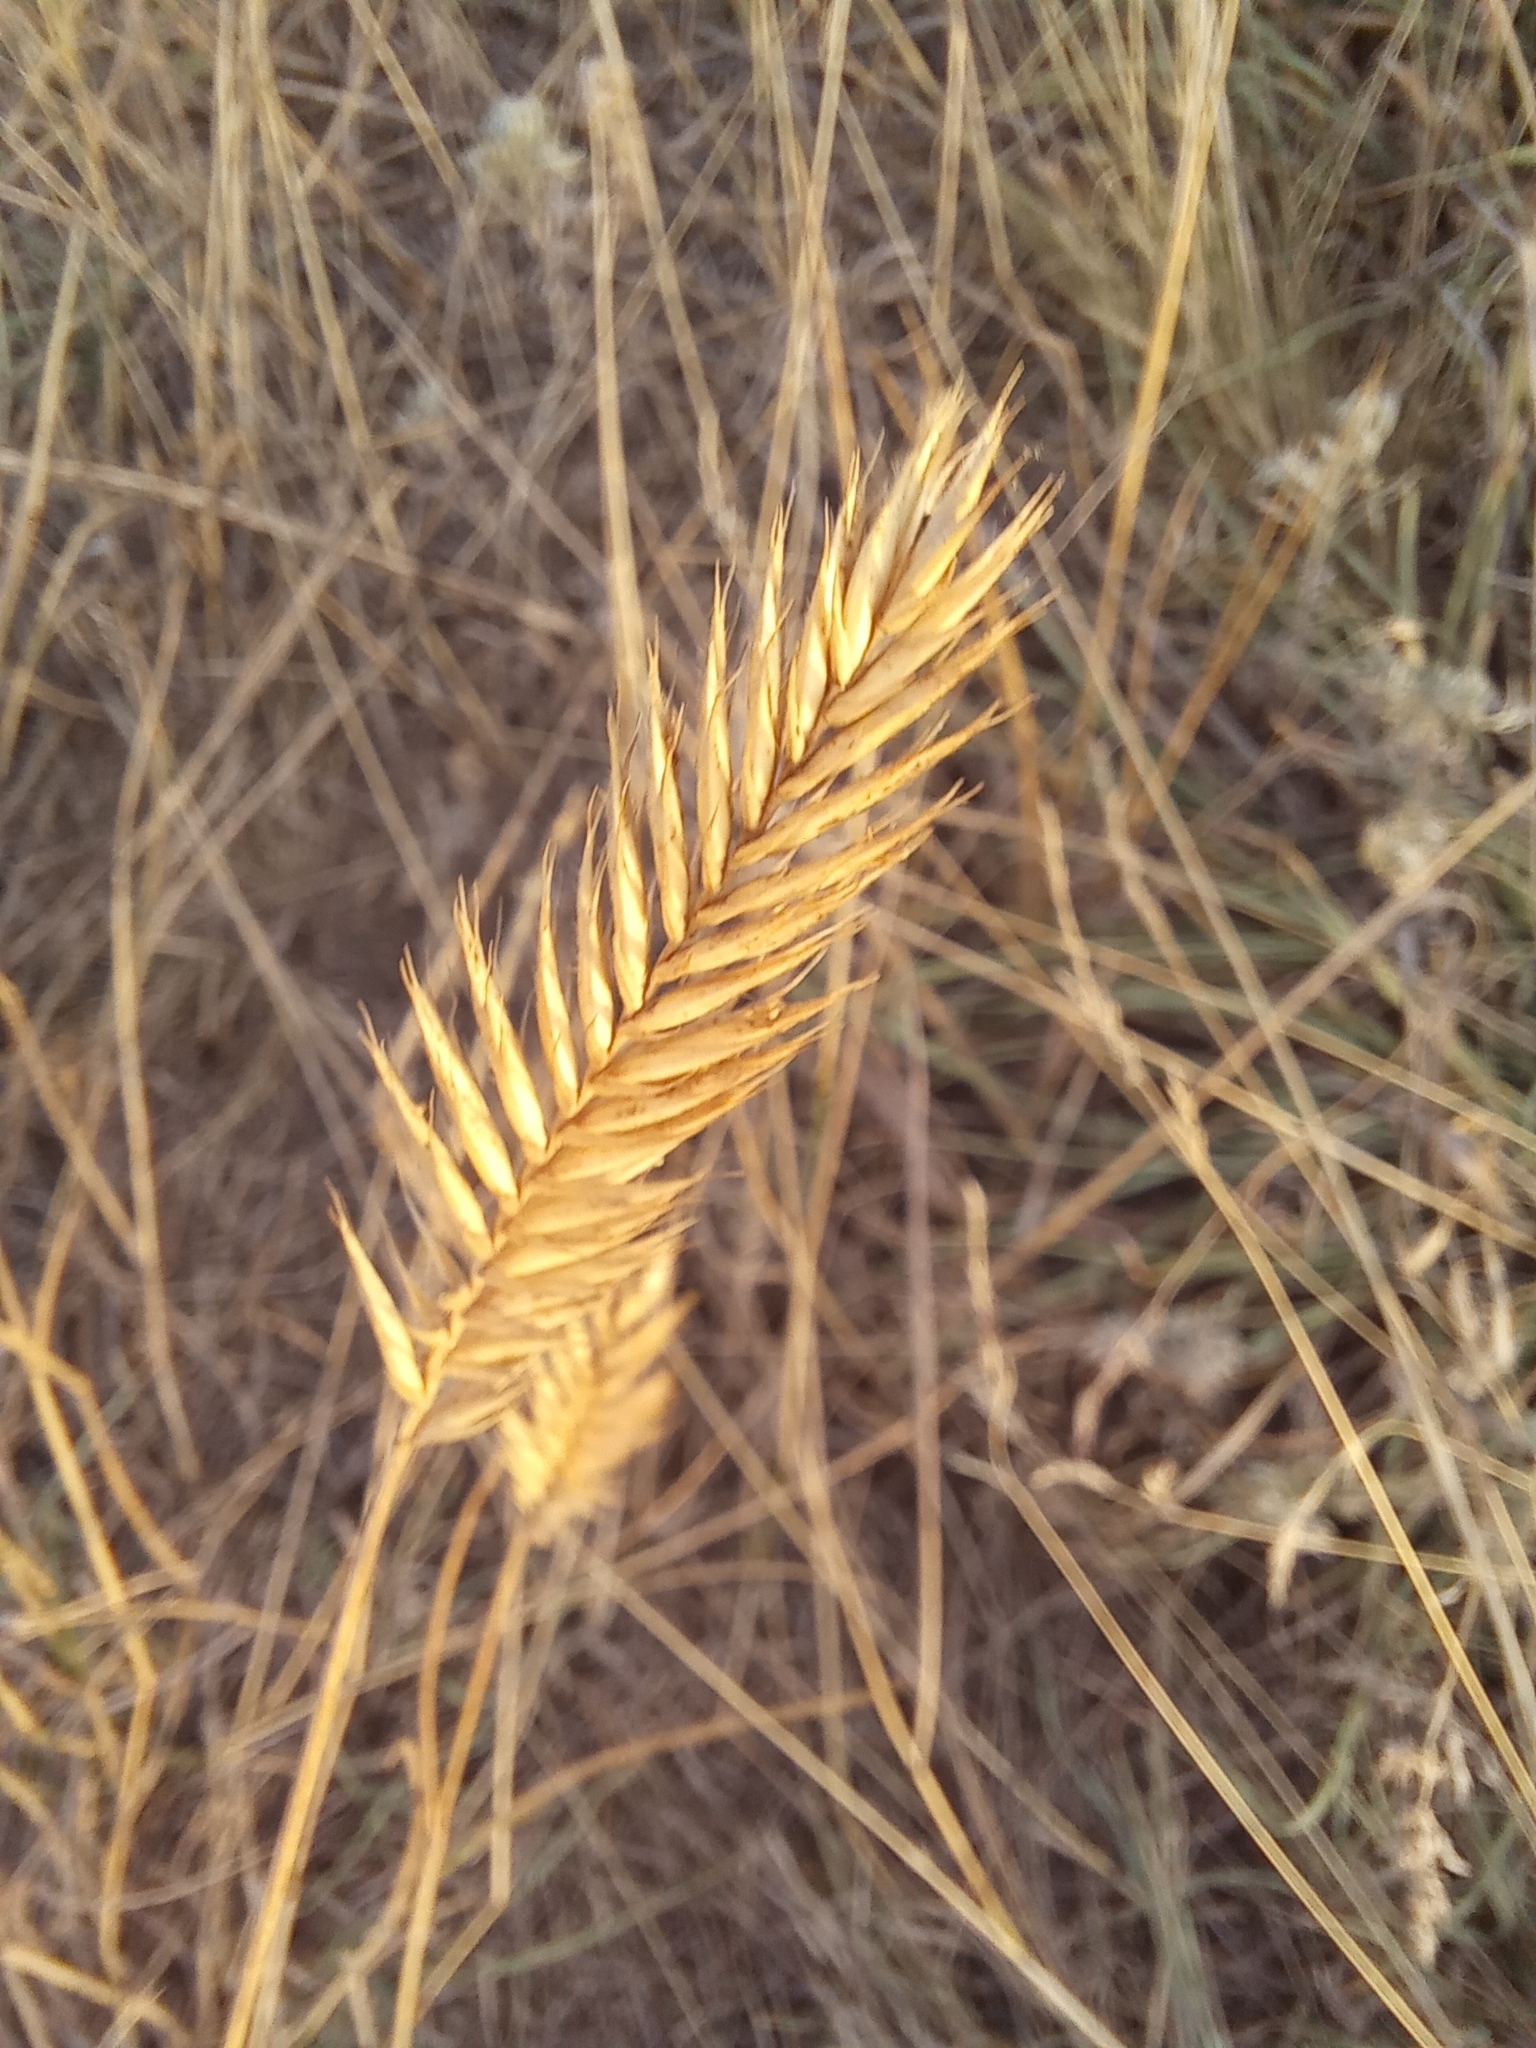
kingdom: Plantae
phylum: Tracheophyta
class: Liliopsida
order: Poales
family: Poaceae
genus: Agropyron
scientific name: Agropyron cristatum
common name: Crested wheatgrass
